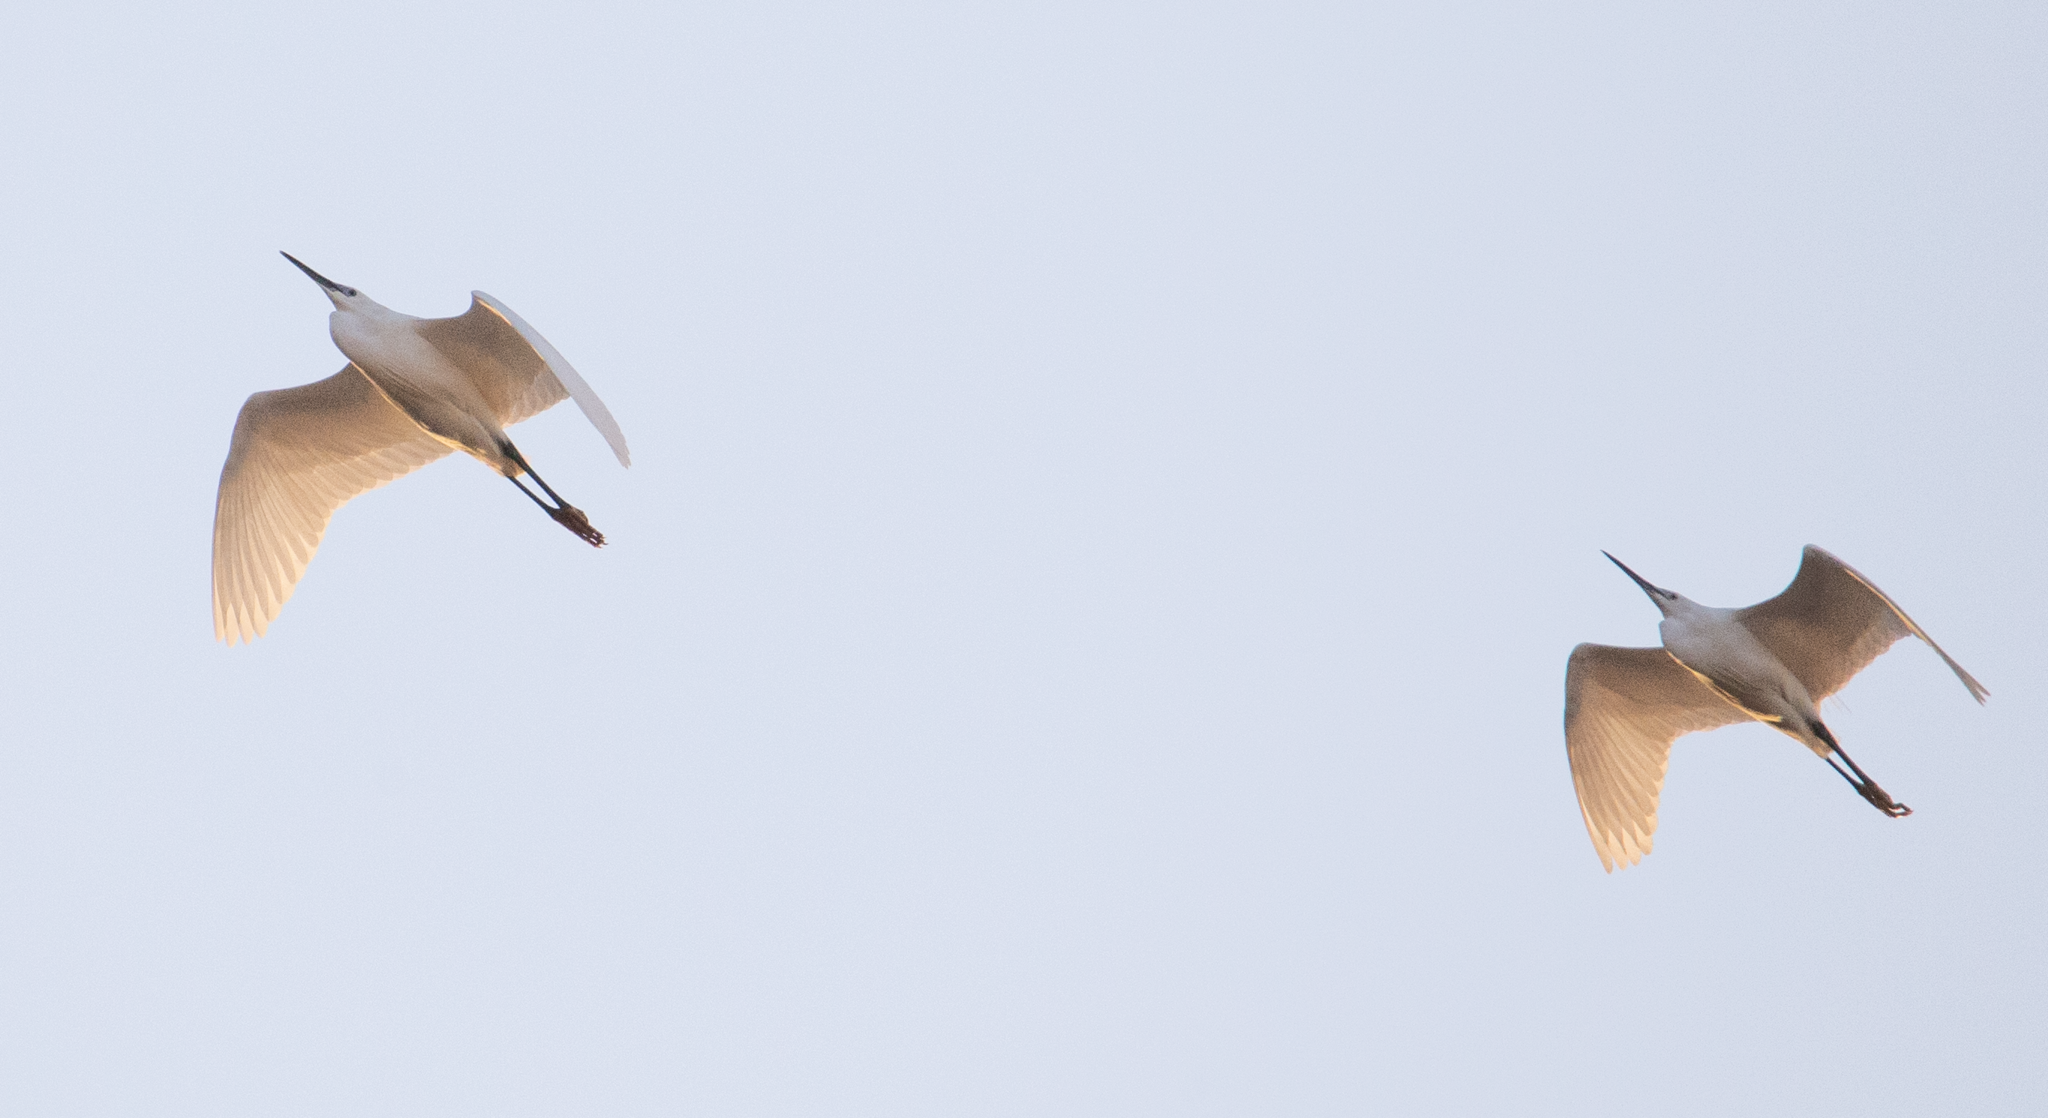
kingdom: Animalia
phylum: Chordata
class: Aves
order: Pelecaniformes
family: Ardeidae
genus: Egretta
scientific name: Egretta garzetta
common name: Little egret
